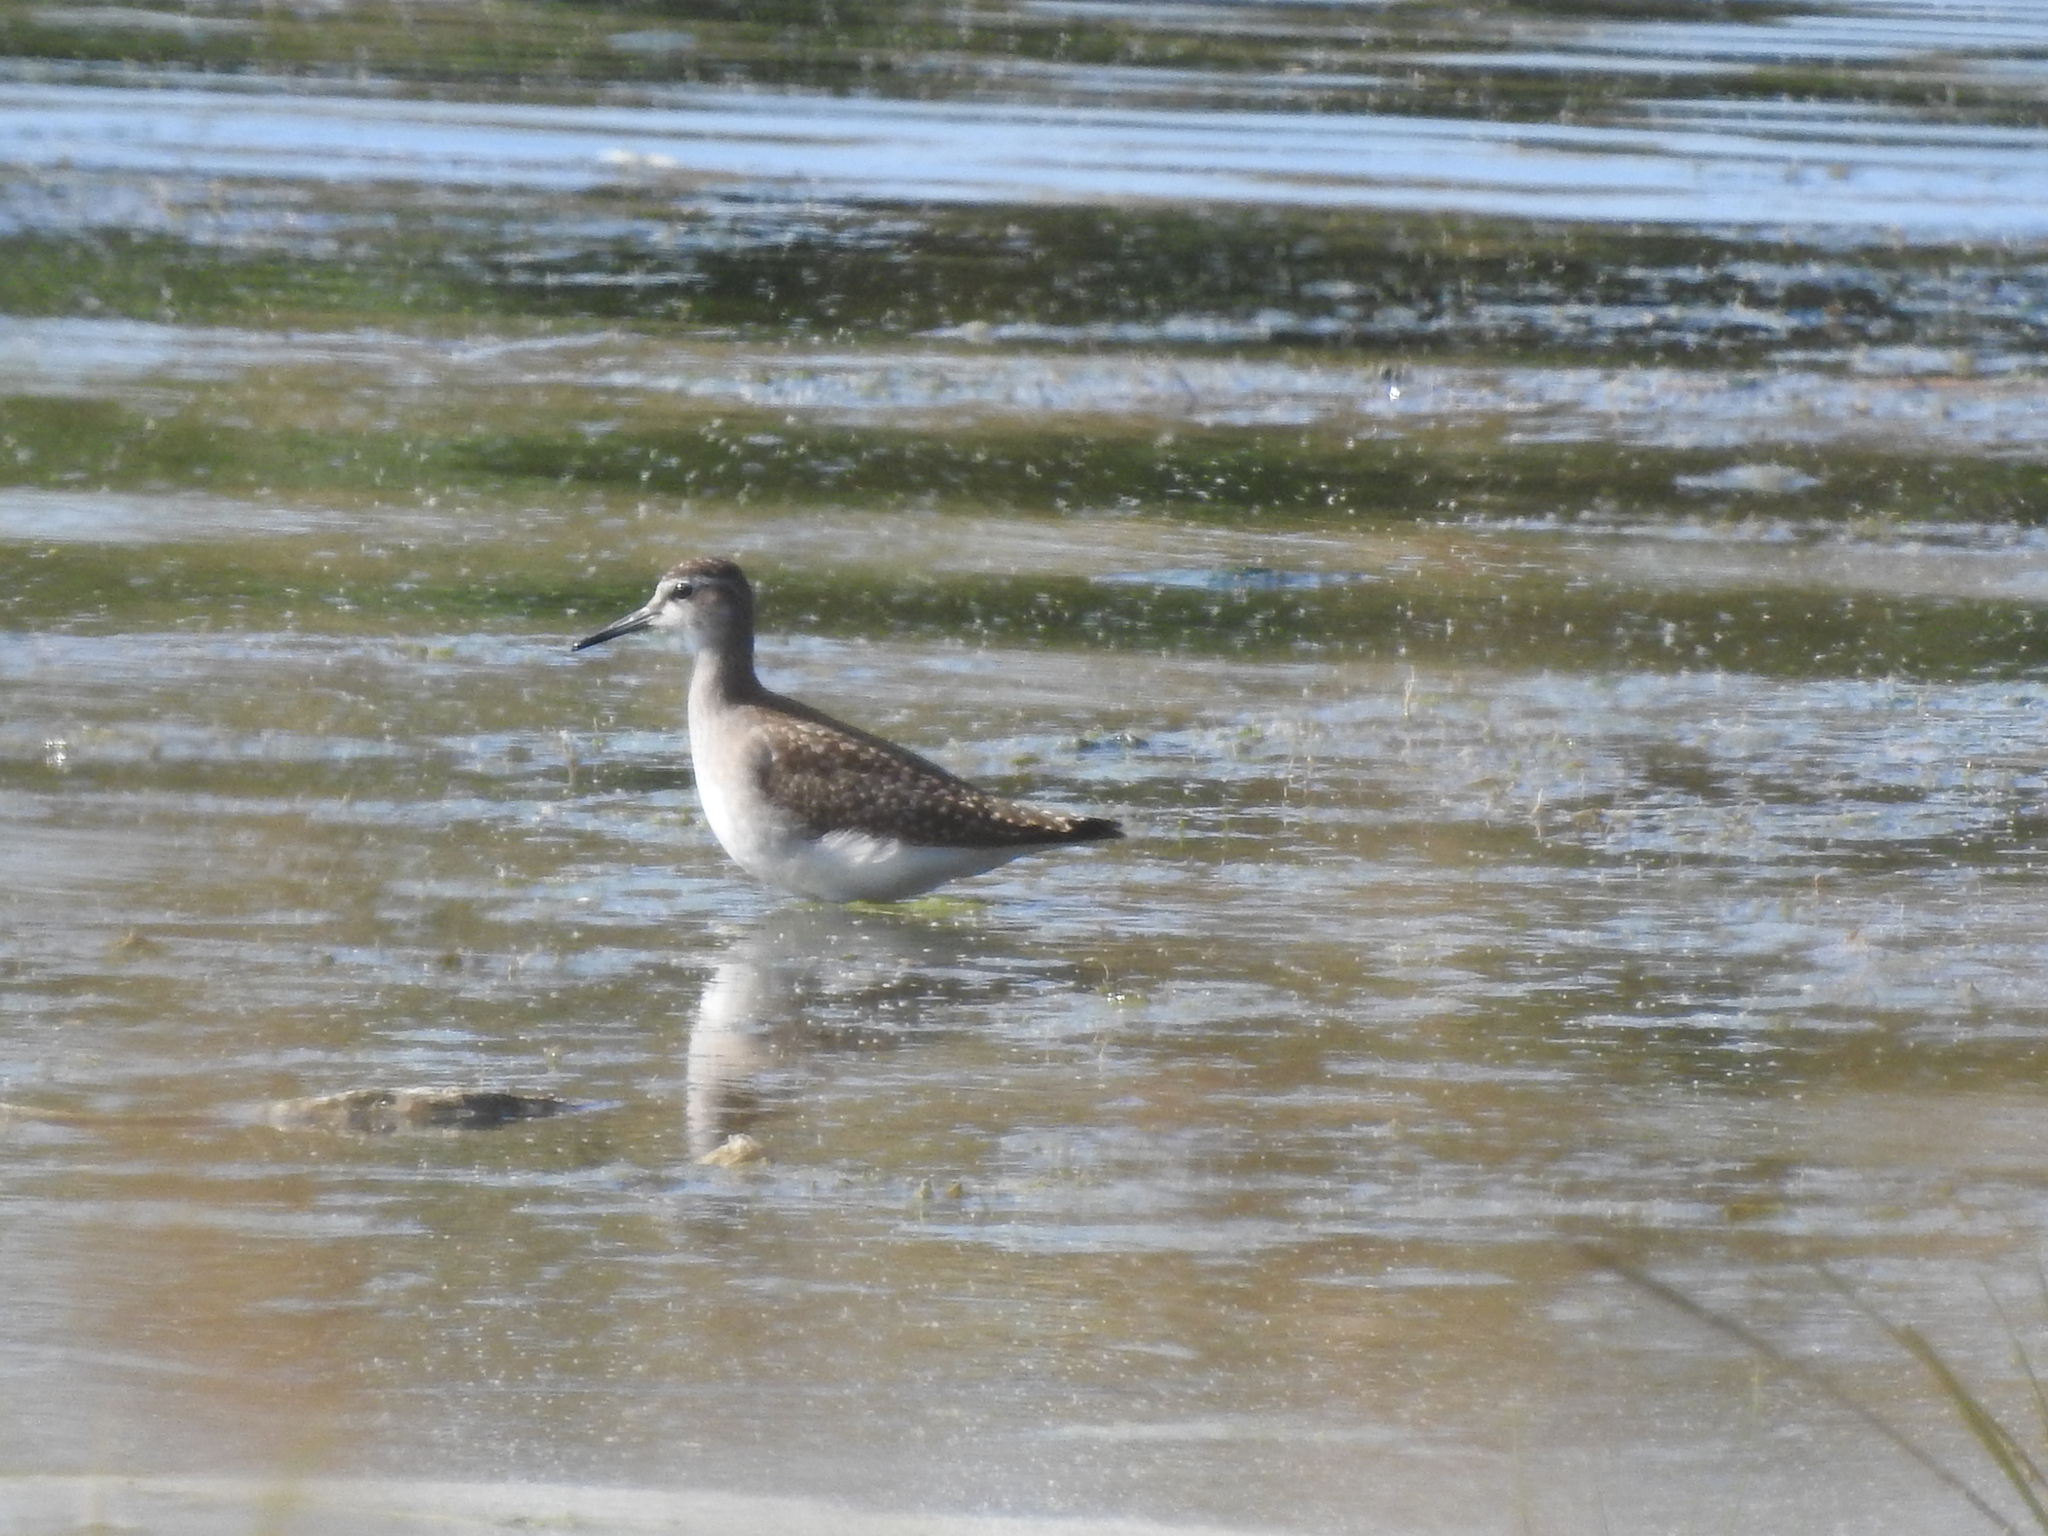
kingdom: Animalia
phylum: Chordata
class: Aves
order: Charadriiformes
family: Scolopacidae
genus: Tringa
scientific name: Tringa glareola
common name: Wood sandpiper
